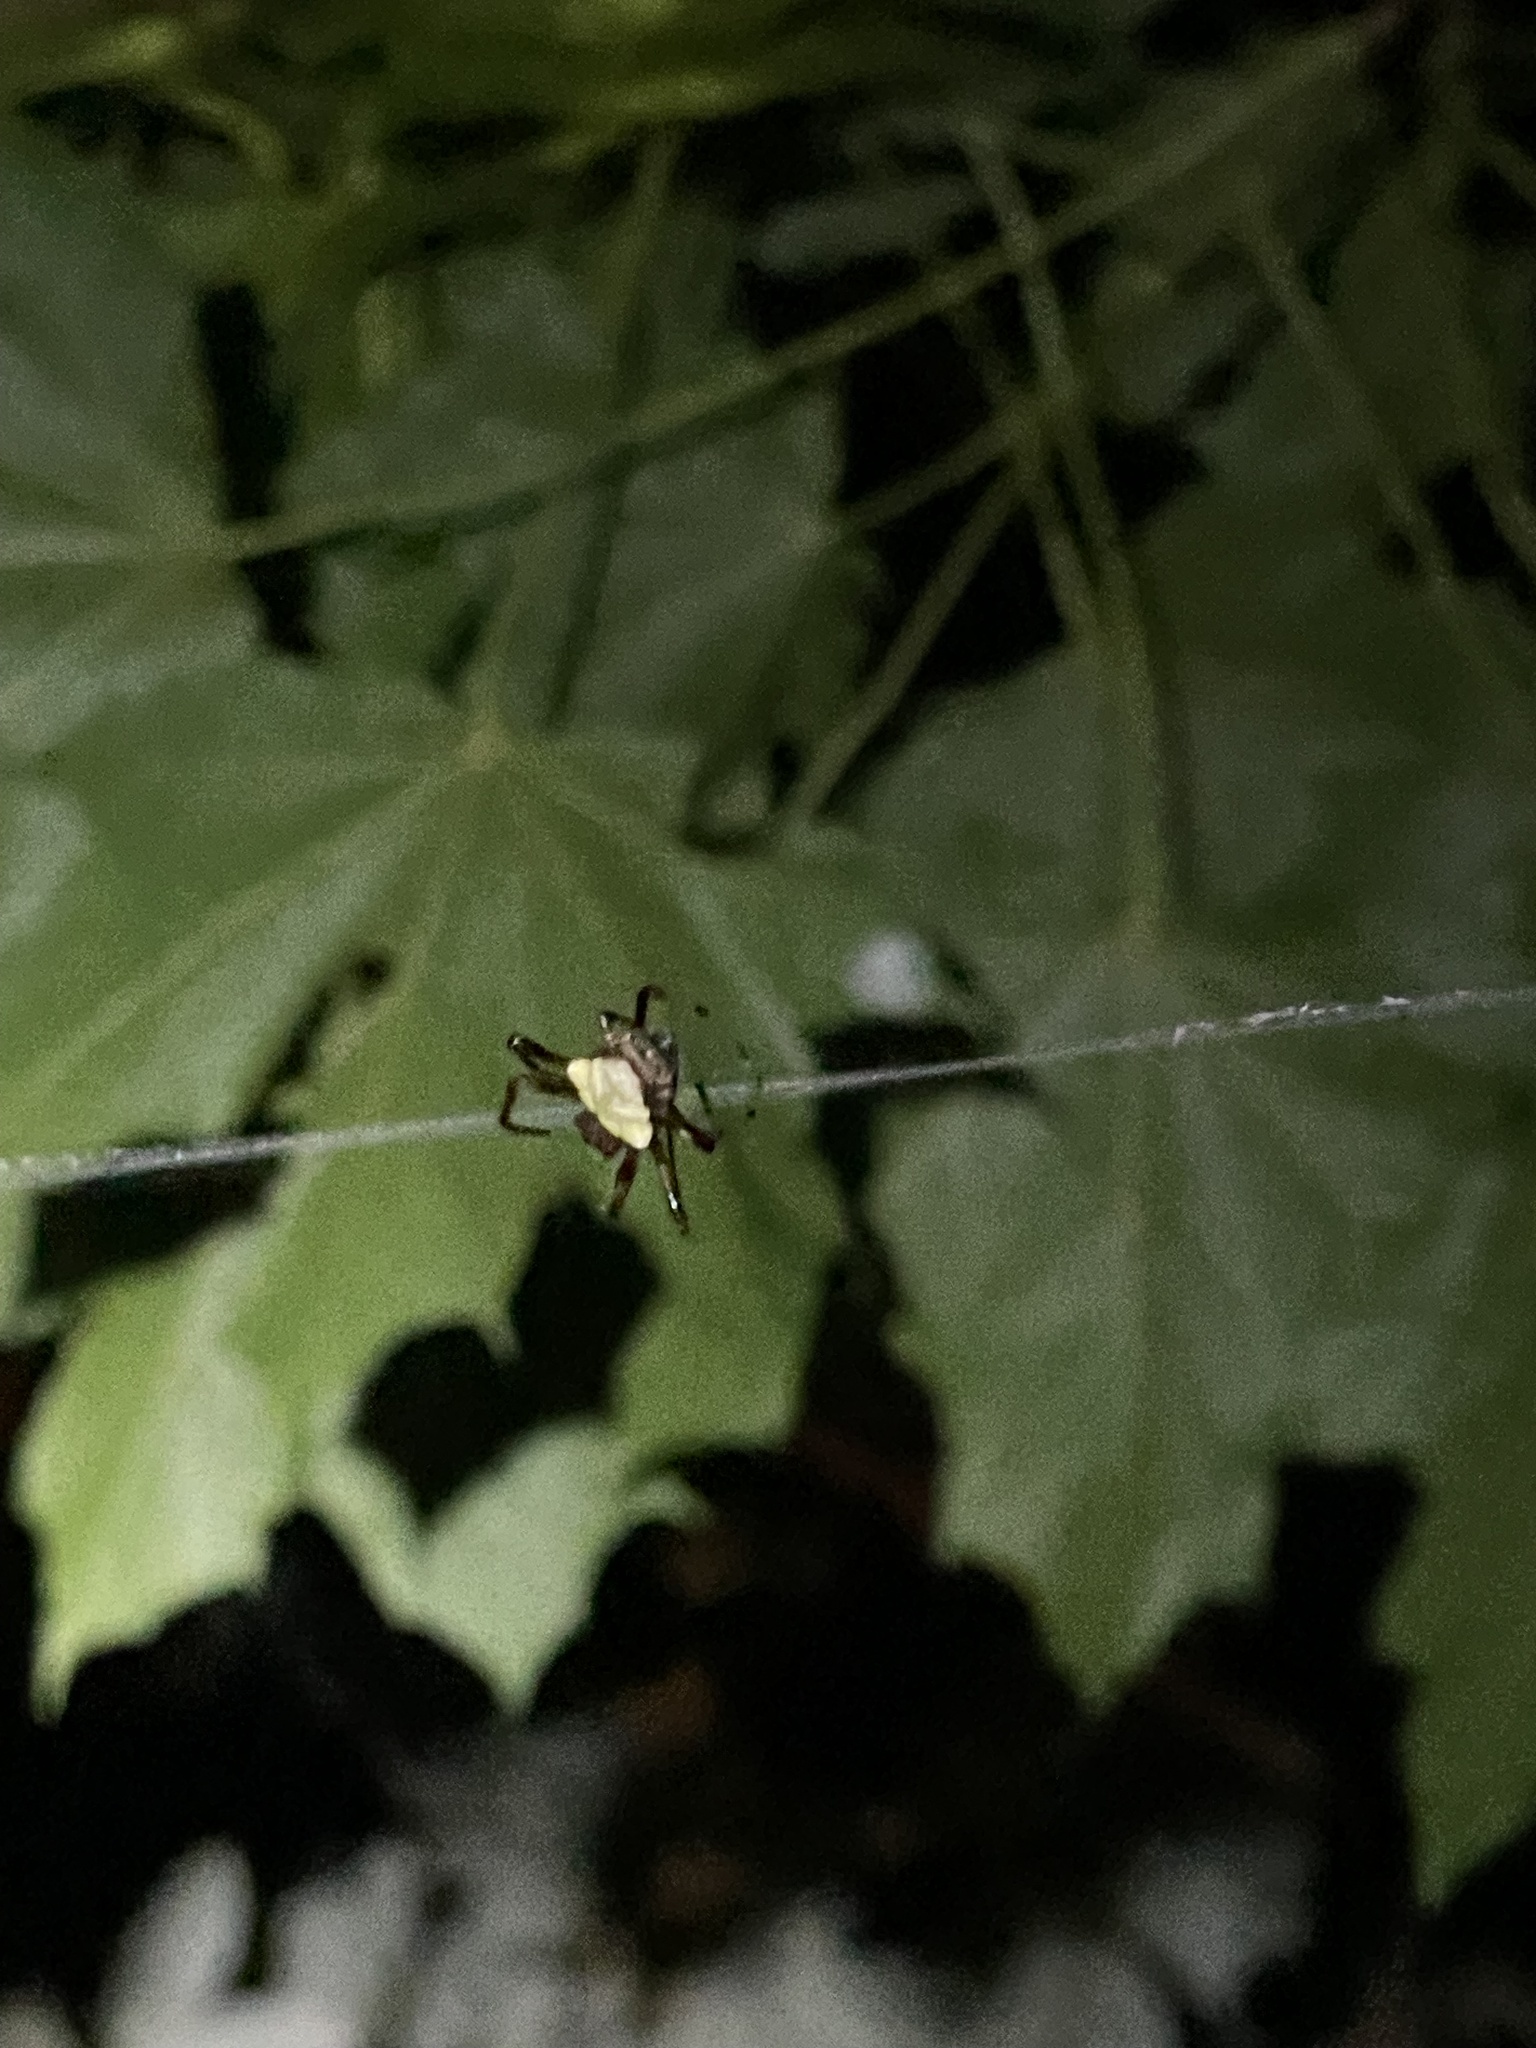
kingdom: Animalia
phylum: Arthropoda
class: Arachnida
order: Araneae
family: Araneidae
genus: Verrucosa
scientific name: Verrucosa arenata
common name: Orb weavers
